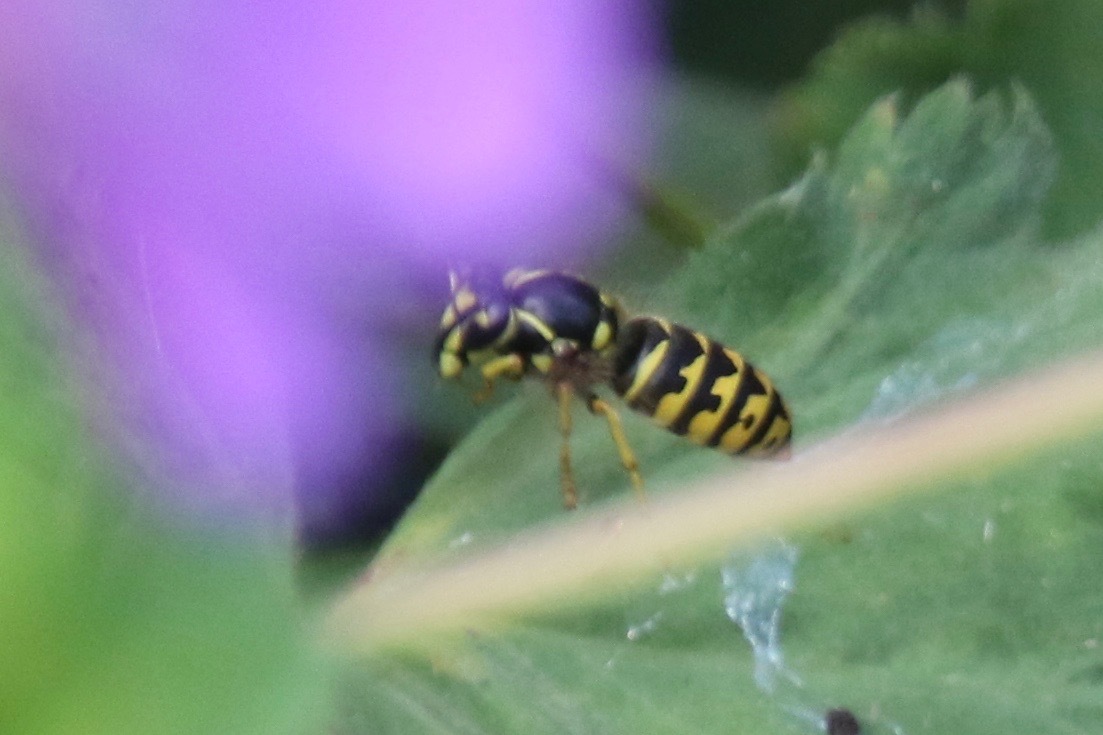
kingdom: Animalia
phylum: Arthropoda
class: Insecta
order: Hymenoptera
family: Vespidae
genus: Dolichovespula
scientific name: Dolichovespula arenaria
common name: Aerial yellowjacket
